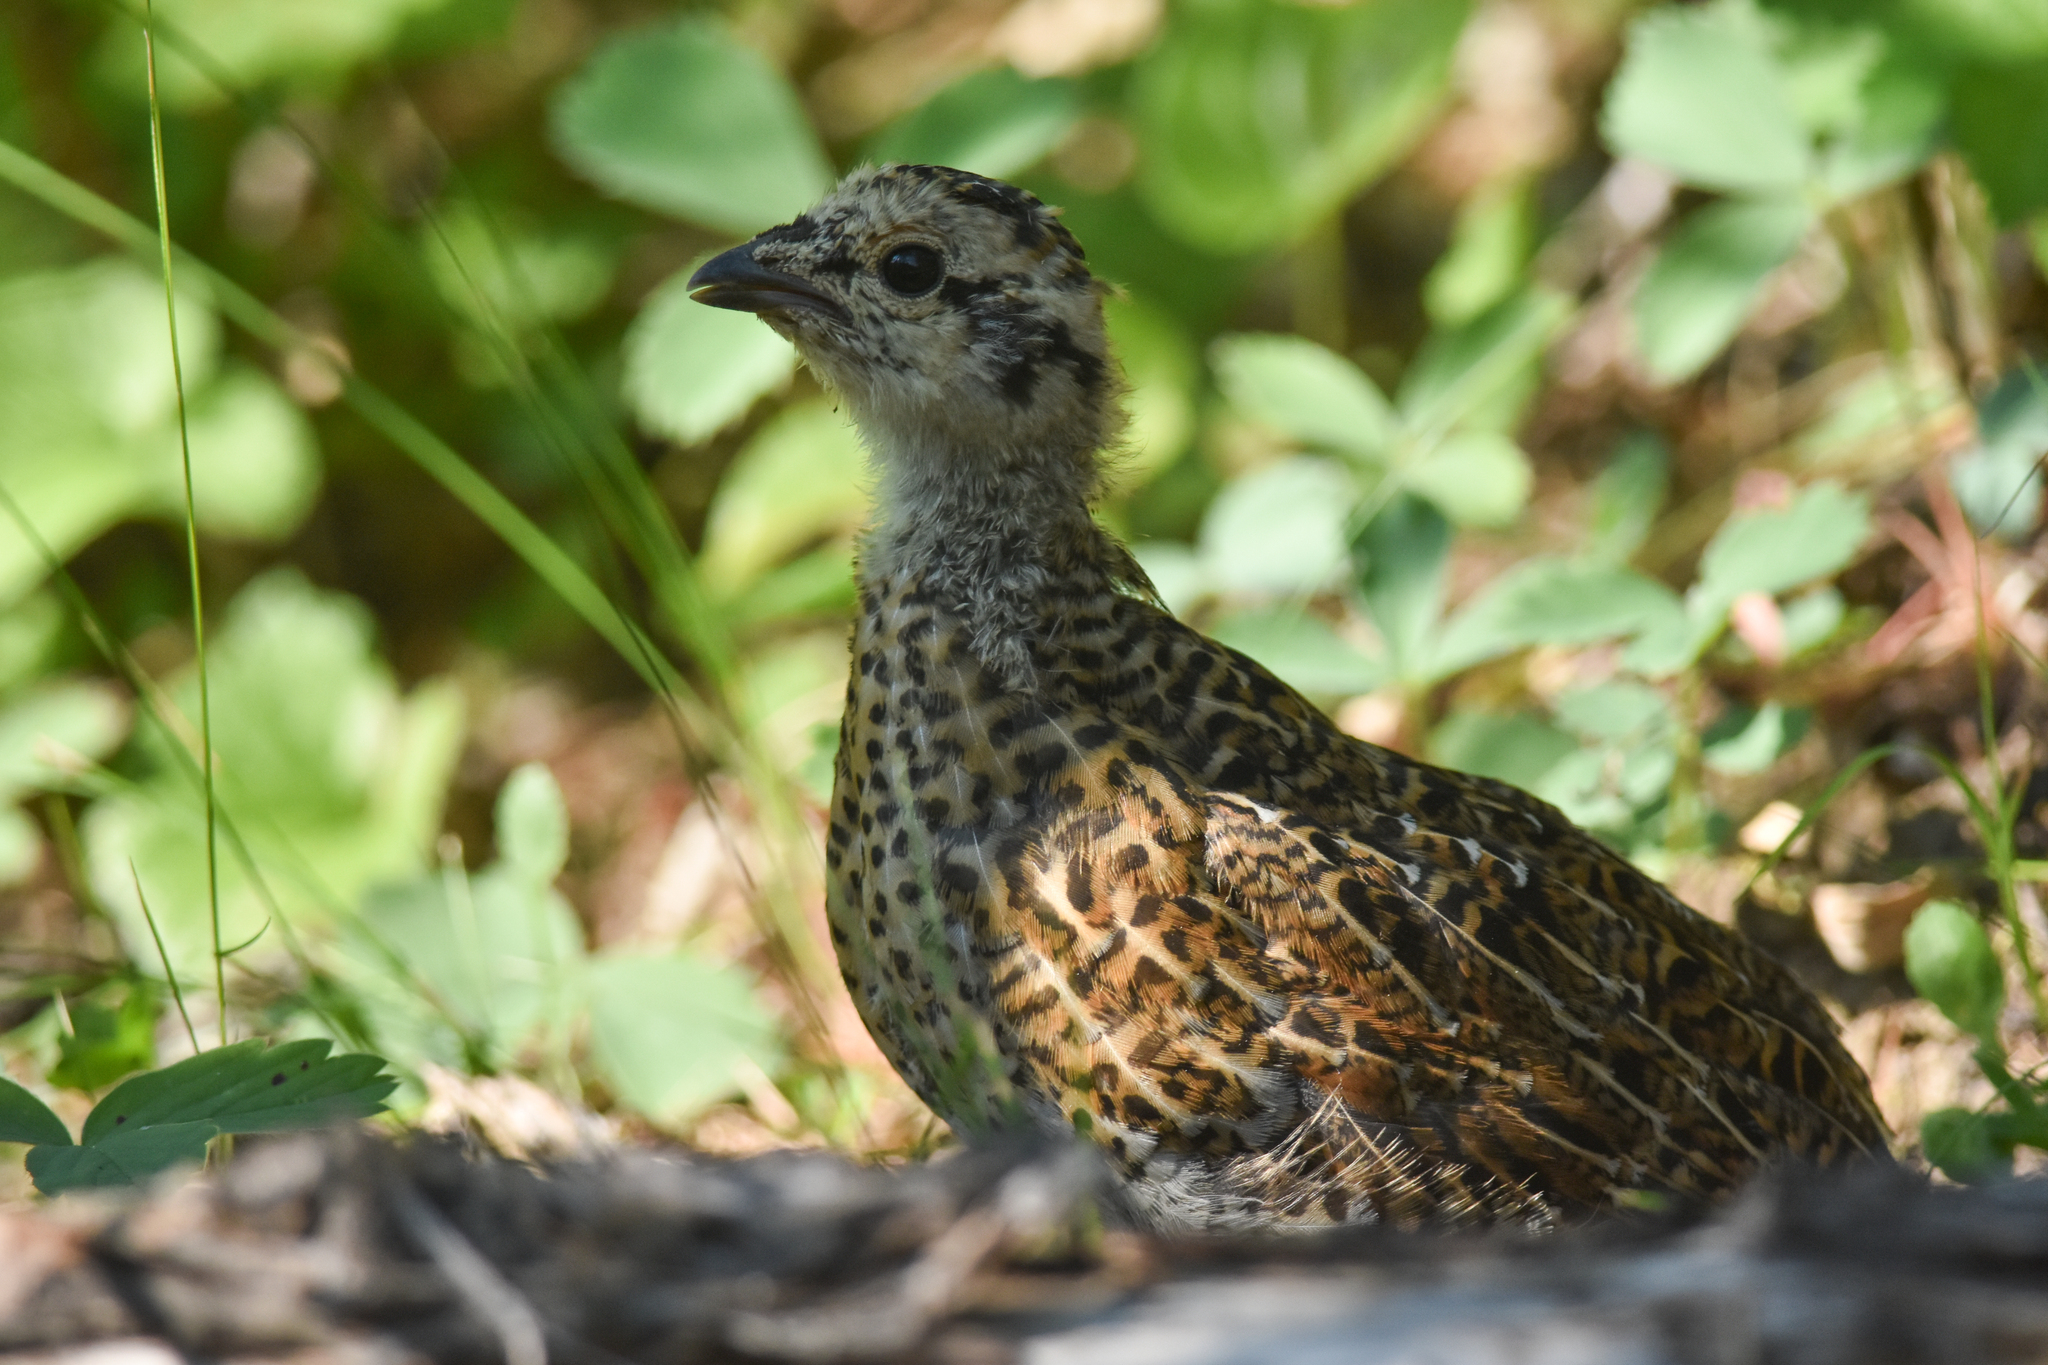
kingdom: Animalia
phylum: Chordata
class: Aves
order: Galliformes
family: Phasianidae
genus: Canachites
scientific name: Canachites canadensis
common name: Spruce grouse
